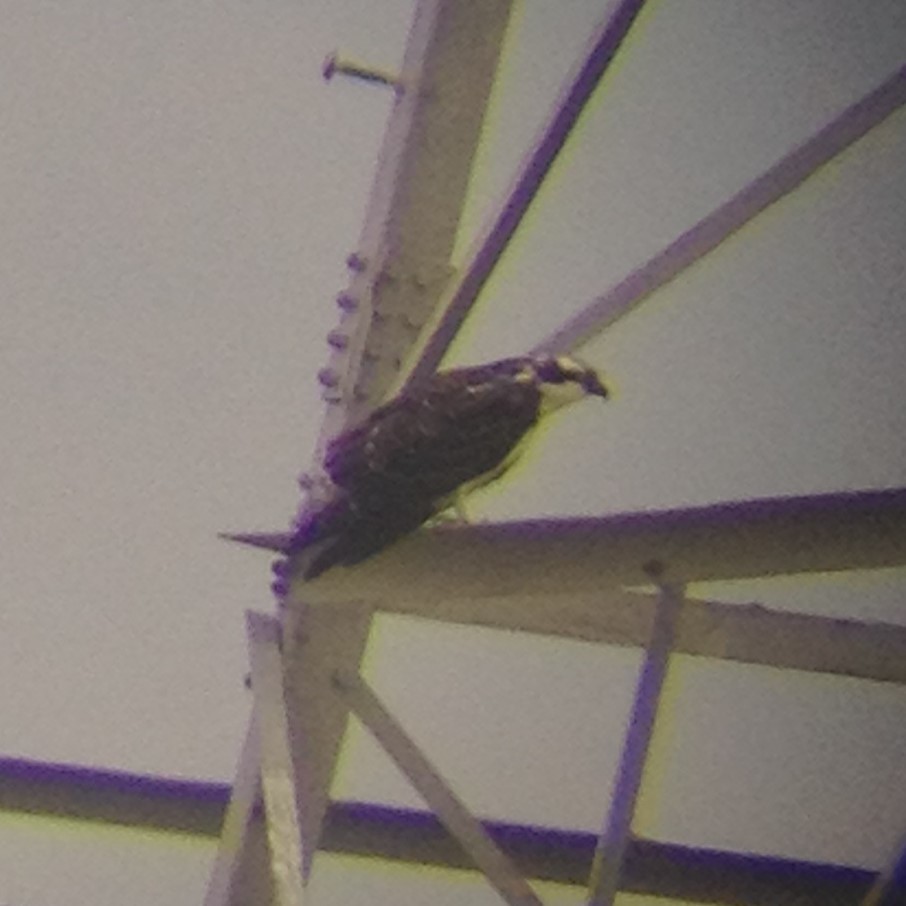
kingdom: Animalia
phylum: Chordata
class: Aves
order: Accipitriformes
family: Pandionidae
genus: Pandion
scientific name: Pandion haliaetus
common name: Osprey
